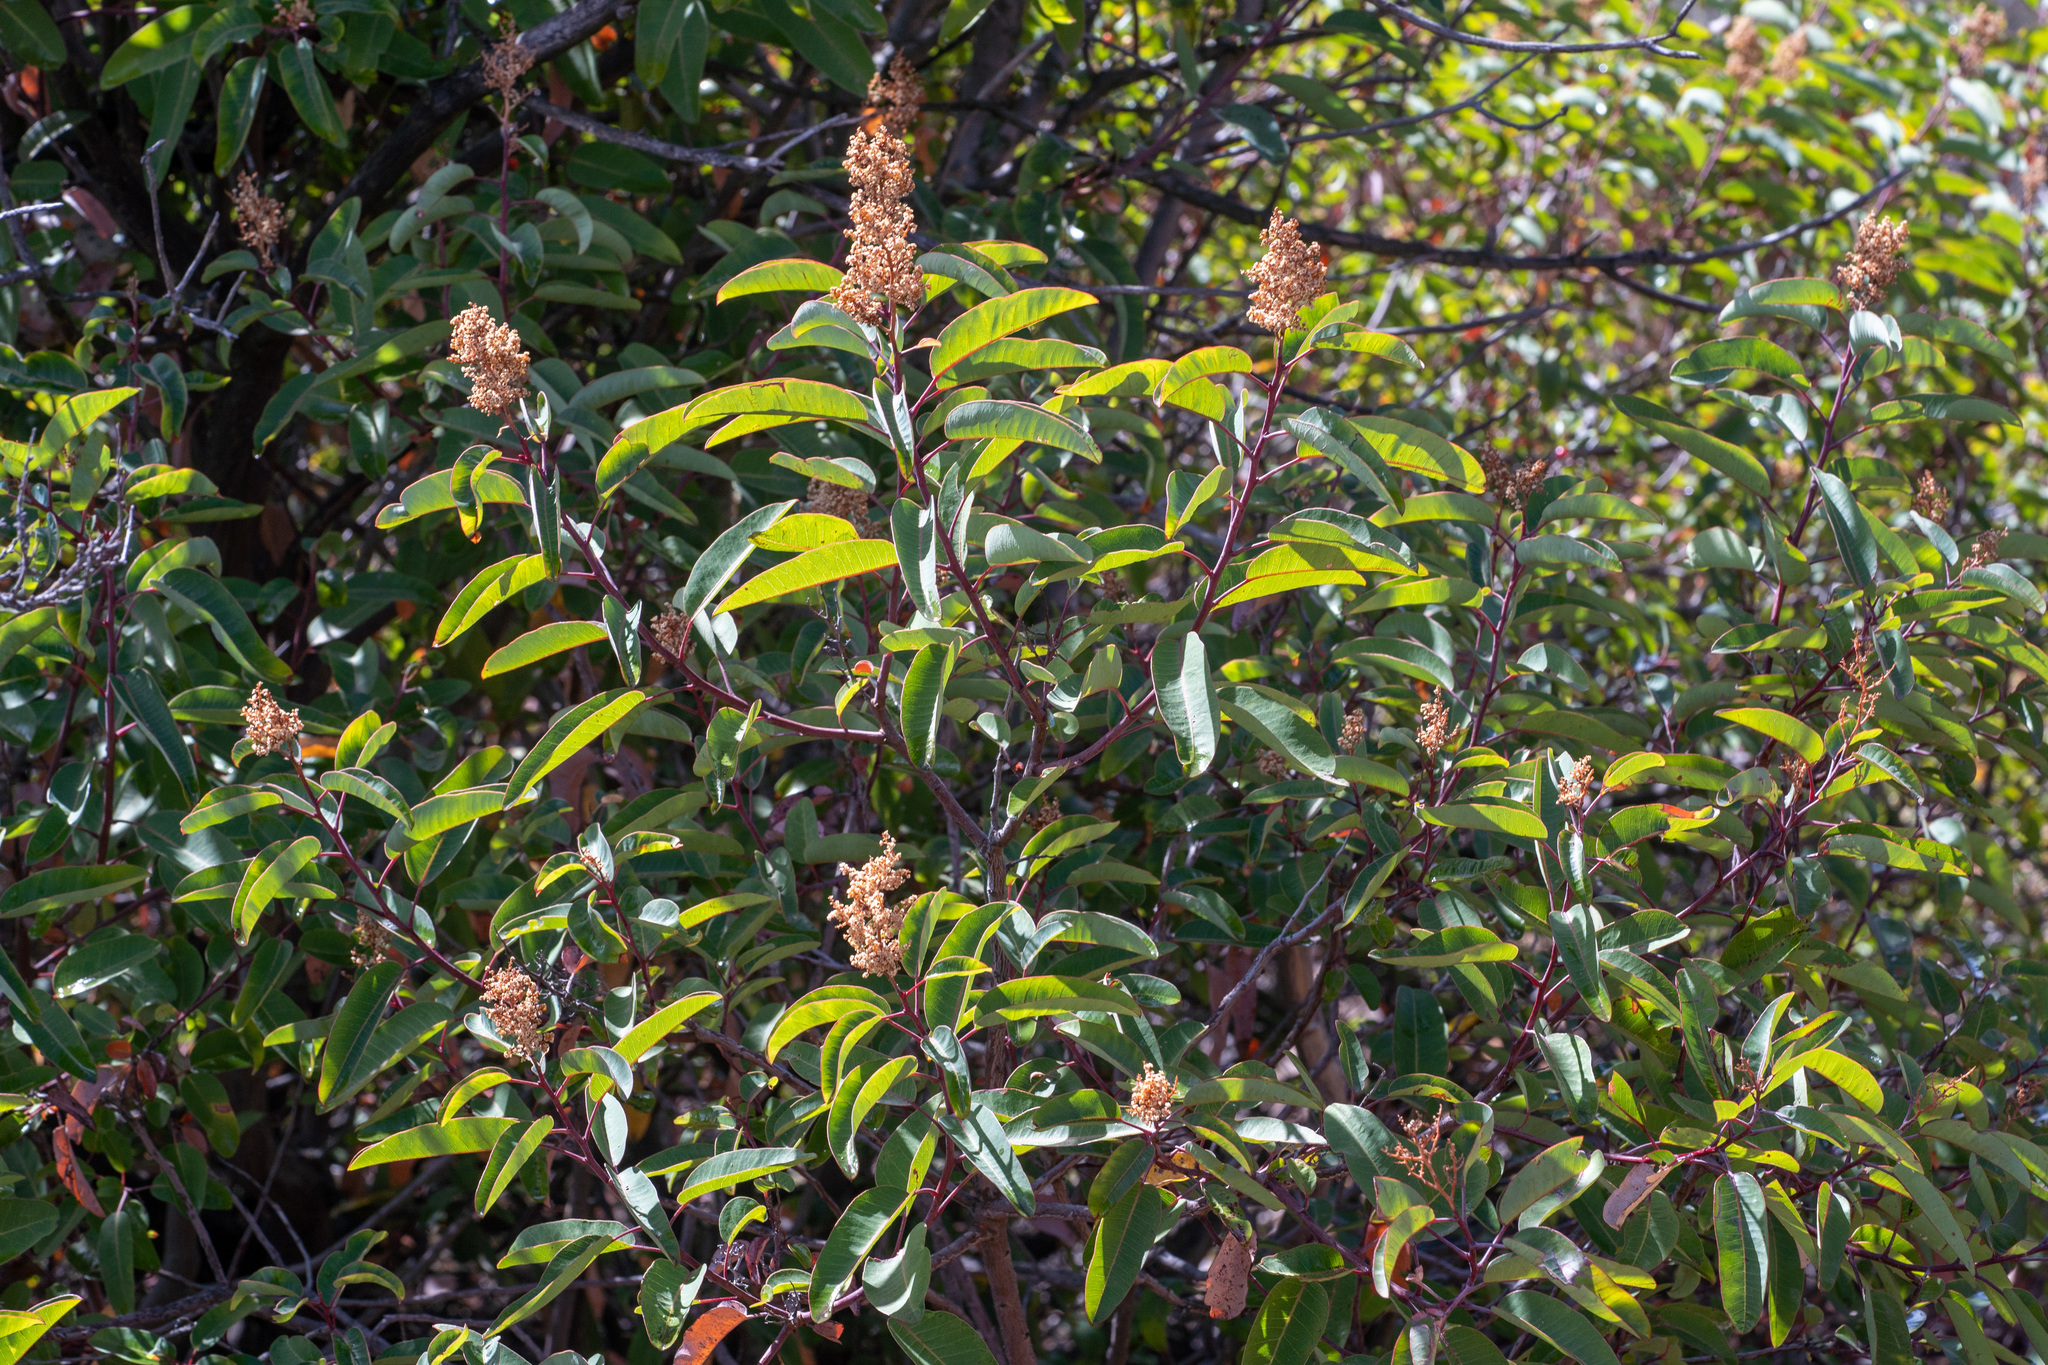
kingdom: Plantae
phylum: Tracheophyta
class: Magnoliopsida
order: Sapindales
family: Anacardiaceae
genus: Malosma
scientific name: Malosma laurina
